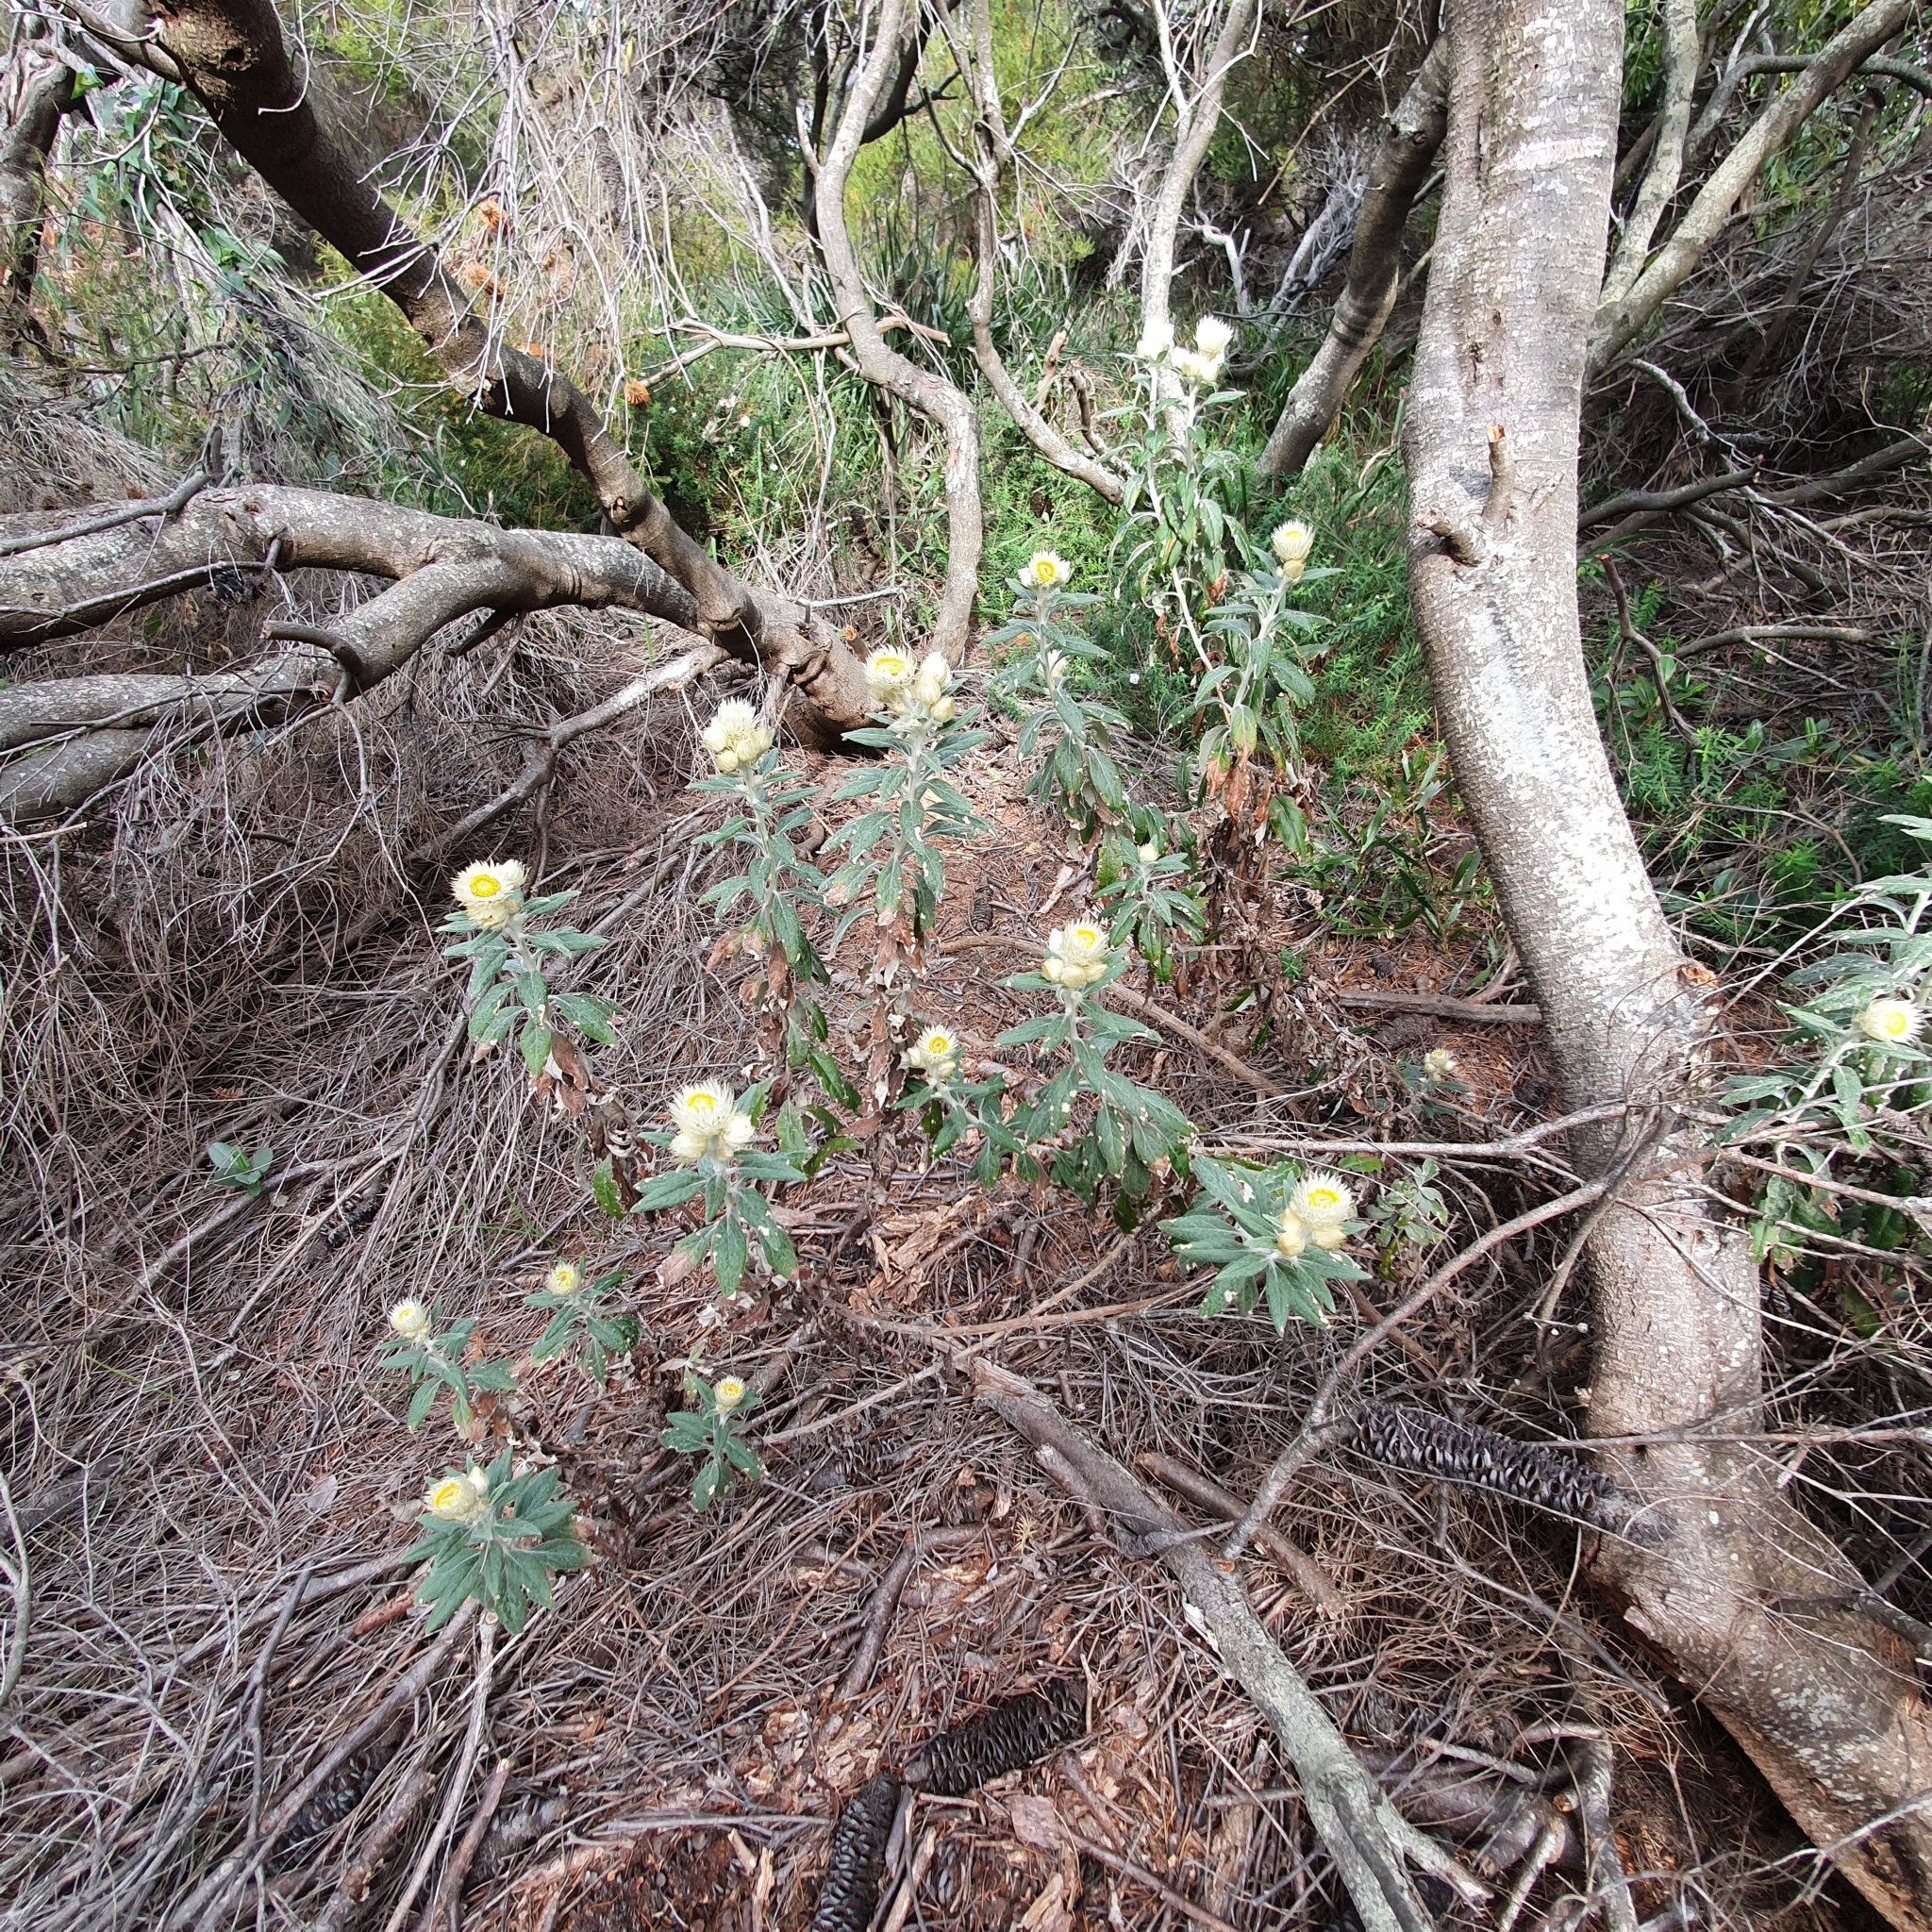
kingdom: Plantae
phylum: Tracheophyta
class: Magnoliopsida
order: Asterales
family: Asteraceae
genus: Leucozoma
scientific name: Leucozoma elatum
